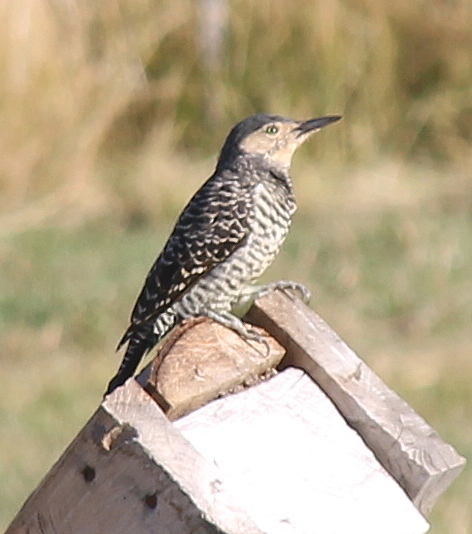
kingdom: Animalia
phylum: Chordata
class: Aves
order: Piciformes
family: Picidae
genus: Colaptes
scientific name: Colaptes pitius
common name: Chilean flicker
